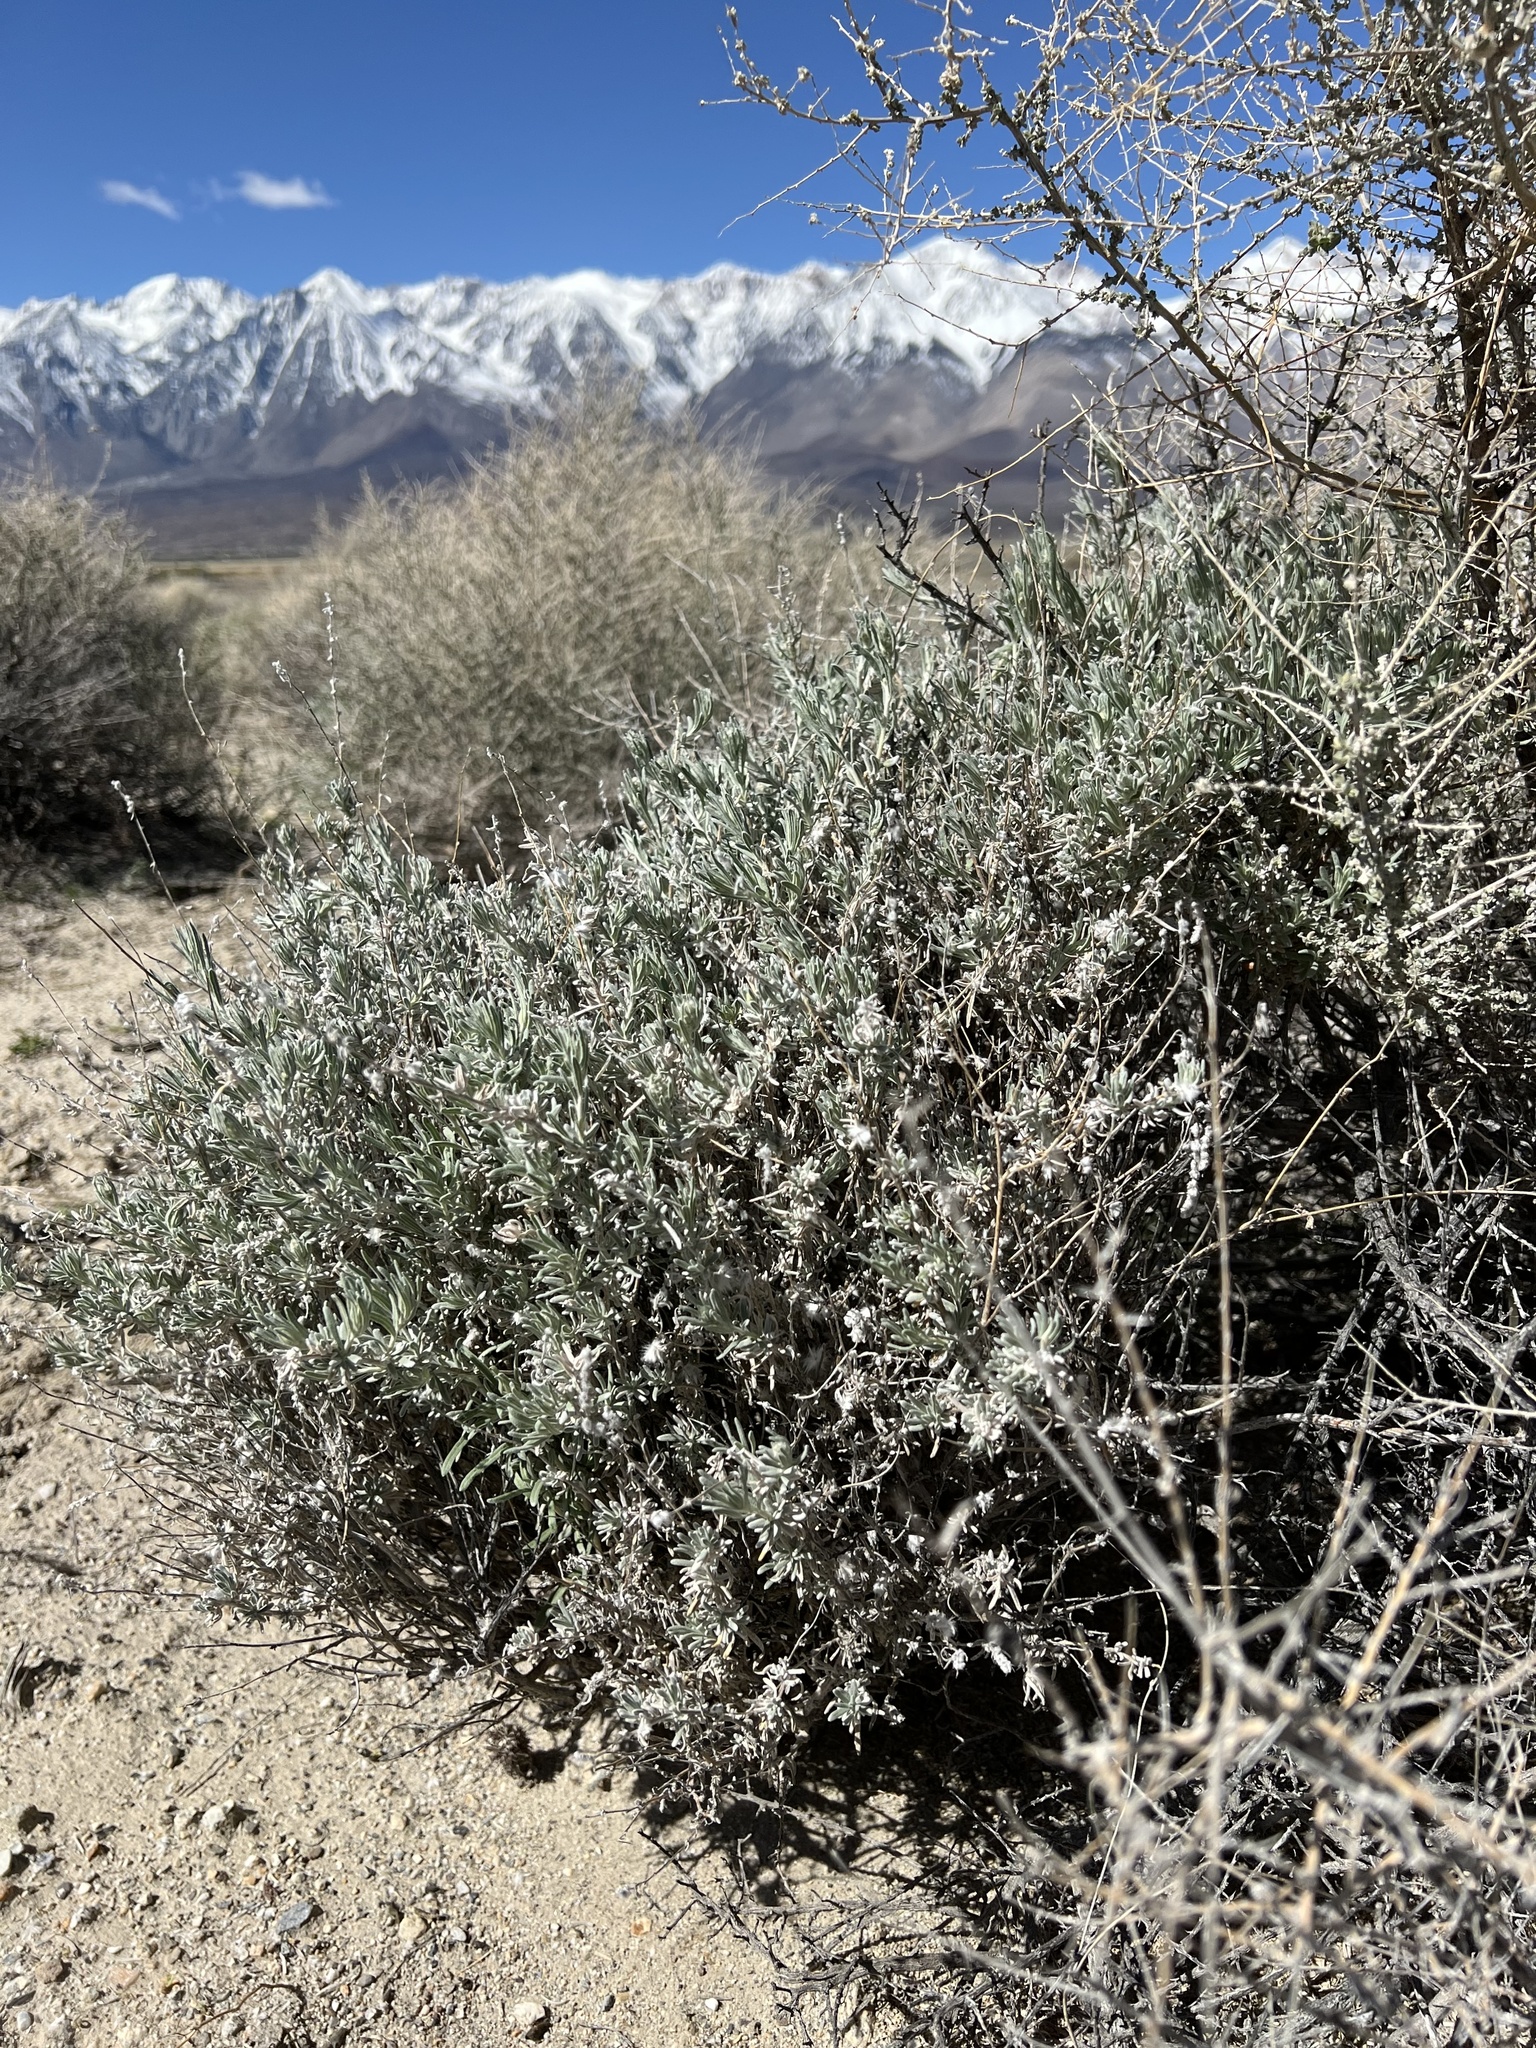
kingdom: Plantae
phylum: Tracheophyta
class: Magnoliopsida
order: Caryophyllales
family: Amaranthaceae
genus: Krascheninnikovia
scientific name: Krascheninnikovia lanata
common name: Winterfat
